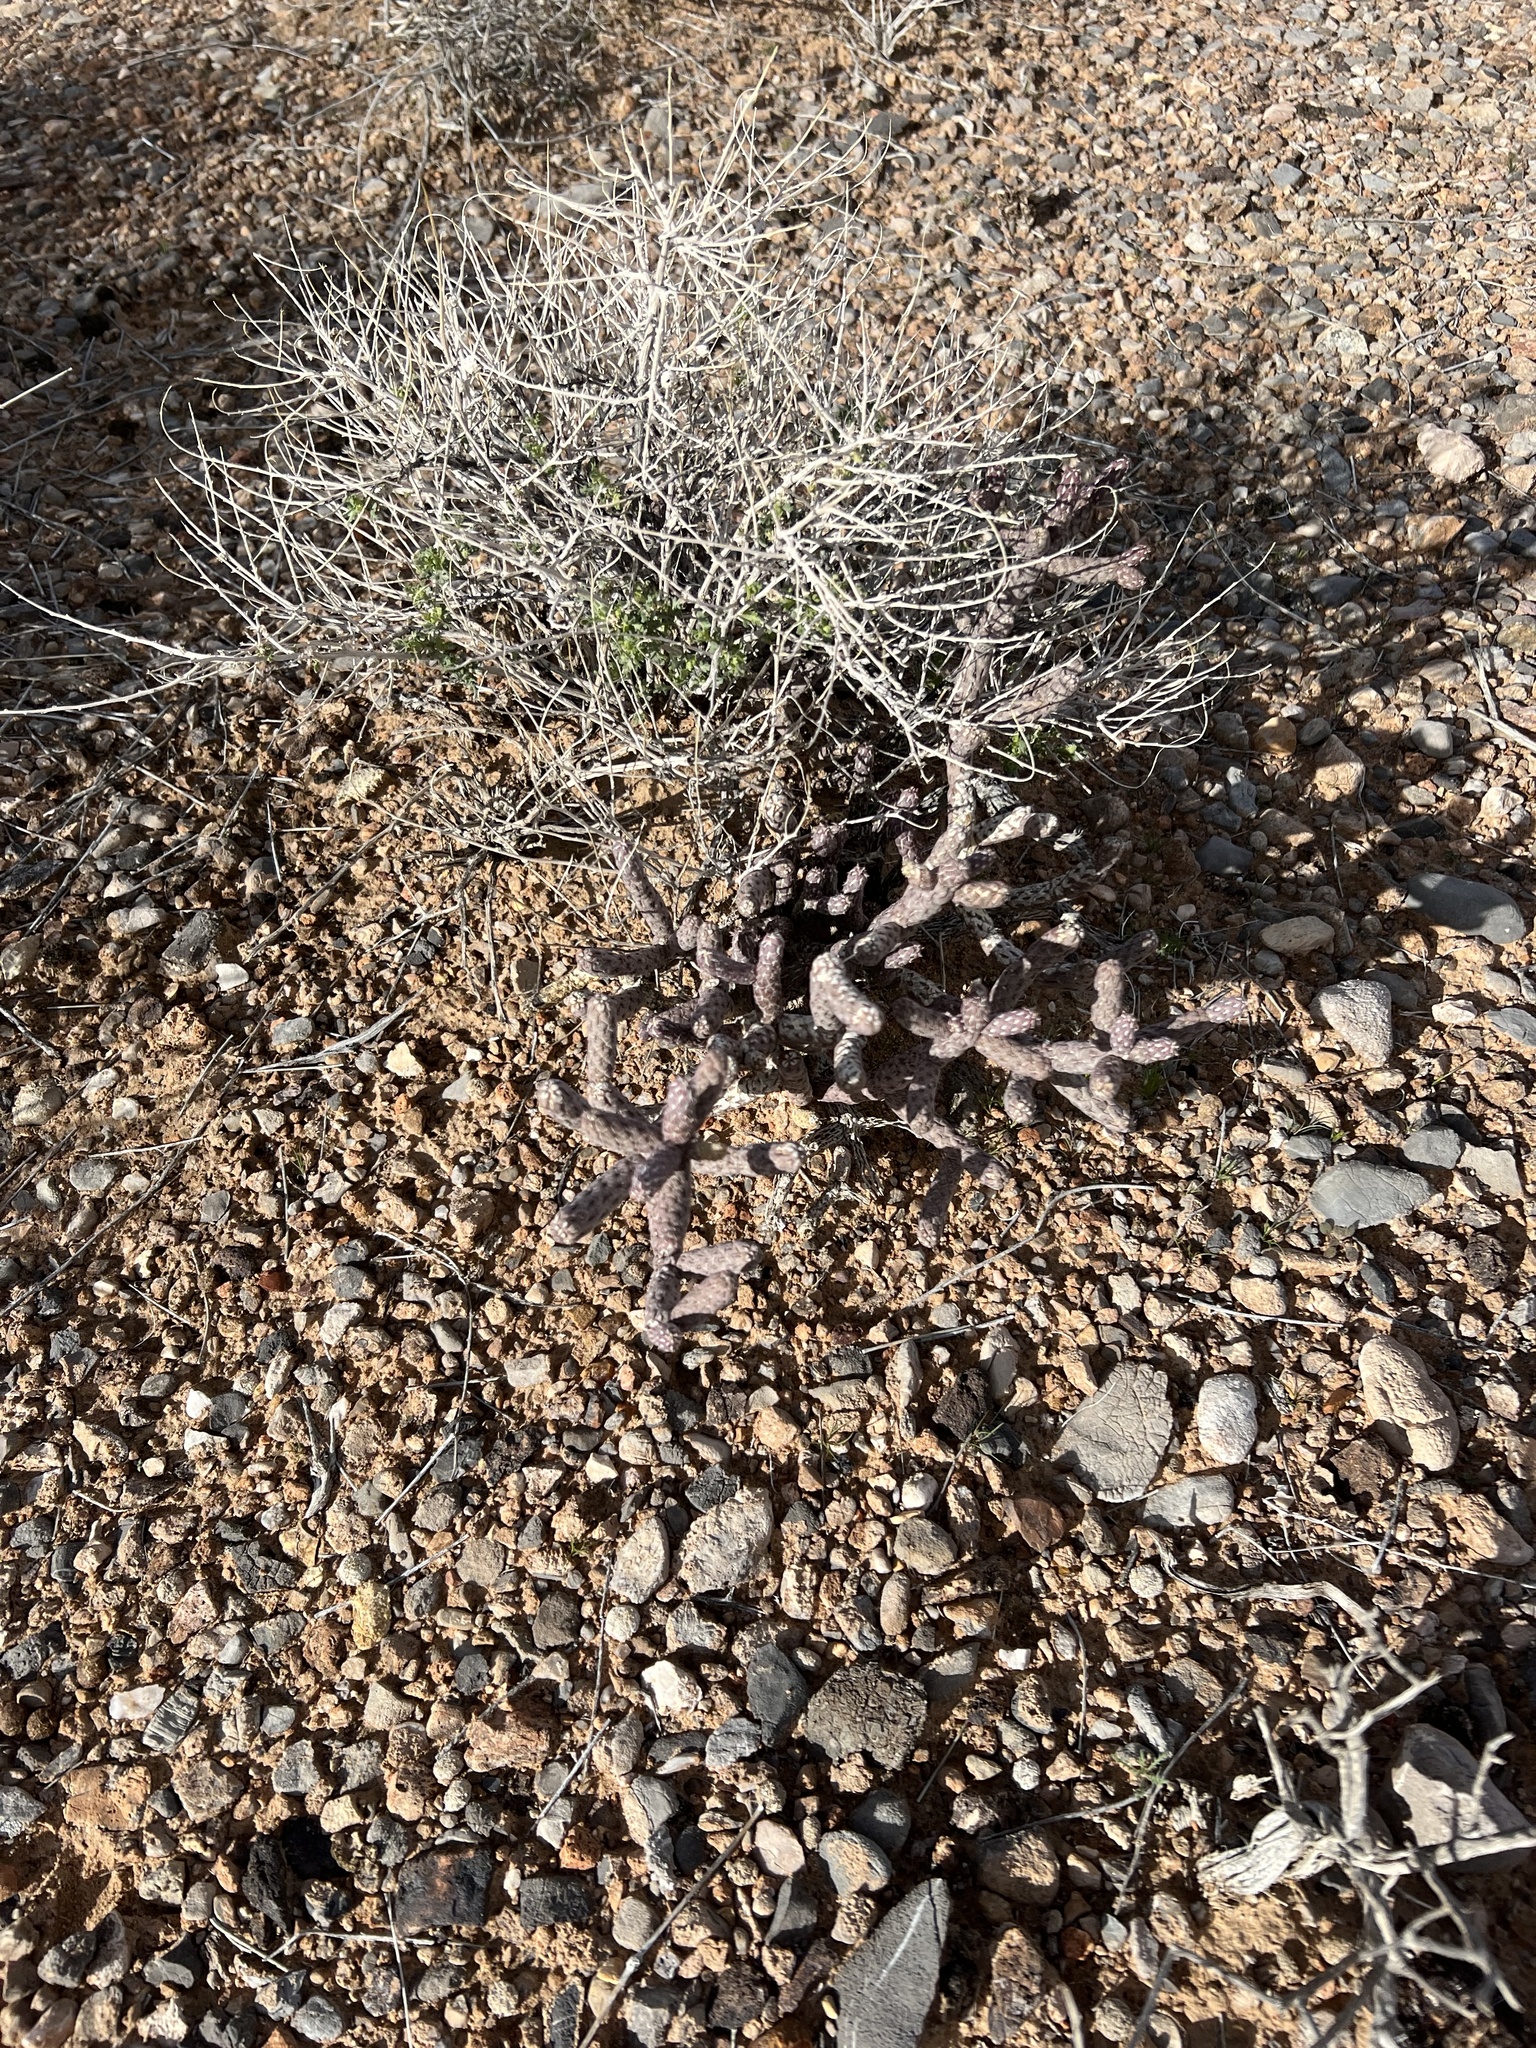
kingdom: Plantae
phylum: Tracheophyta
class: Magnoliopsida
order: Caryophyllales
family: Cactaceae
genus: Cylindropuntia
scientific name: Cylindropuntia ramosissima
